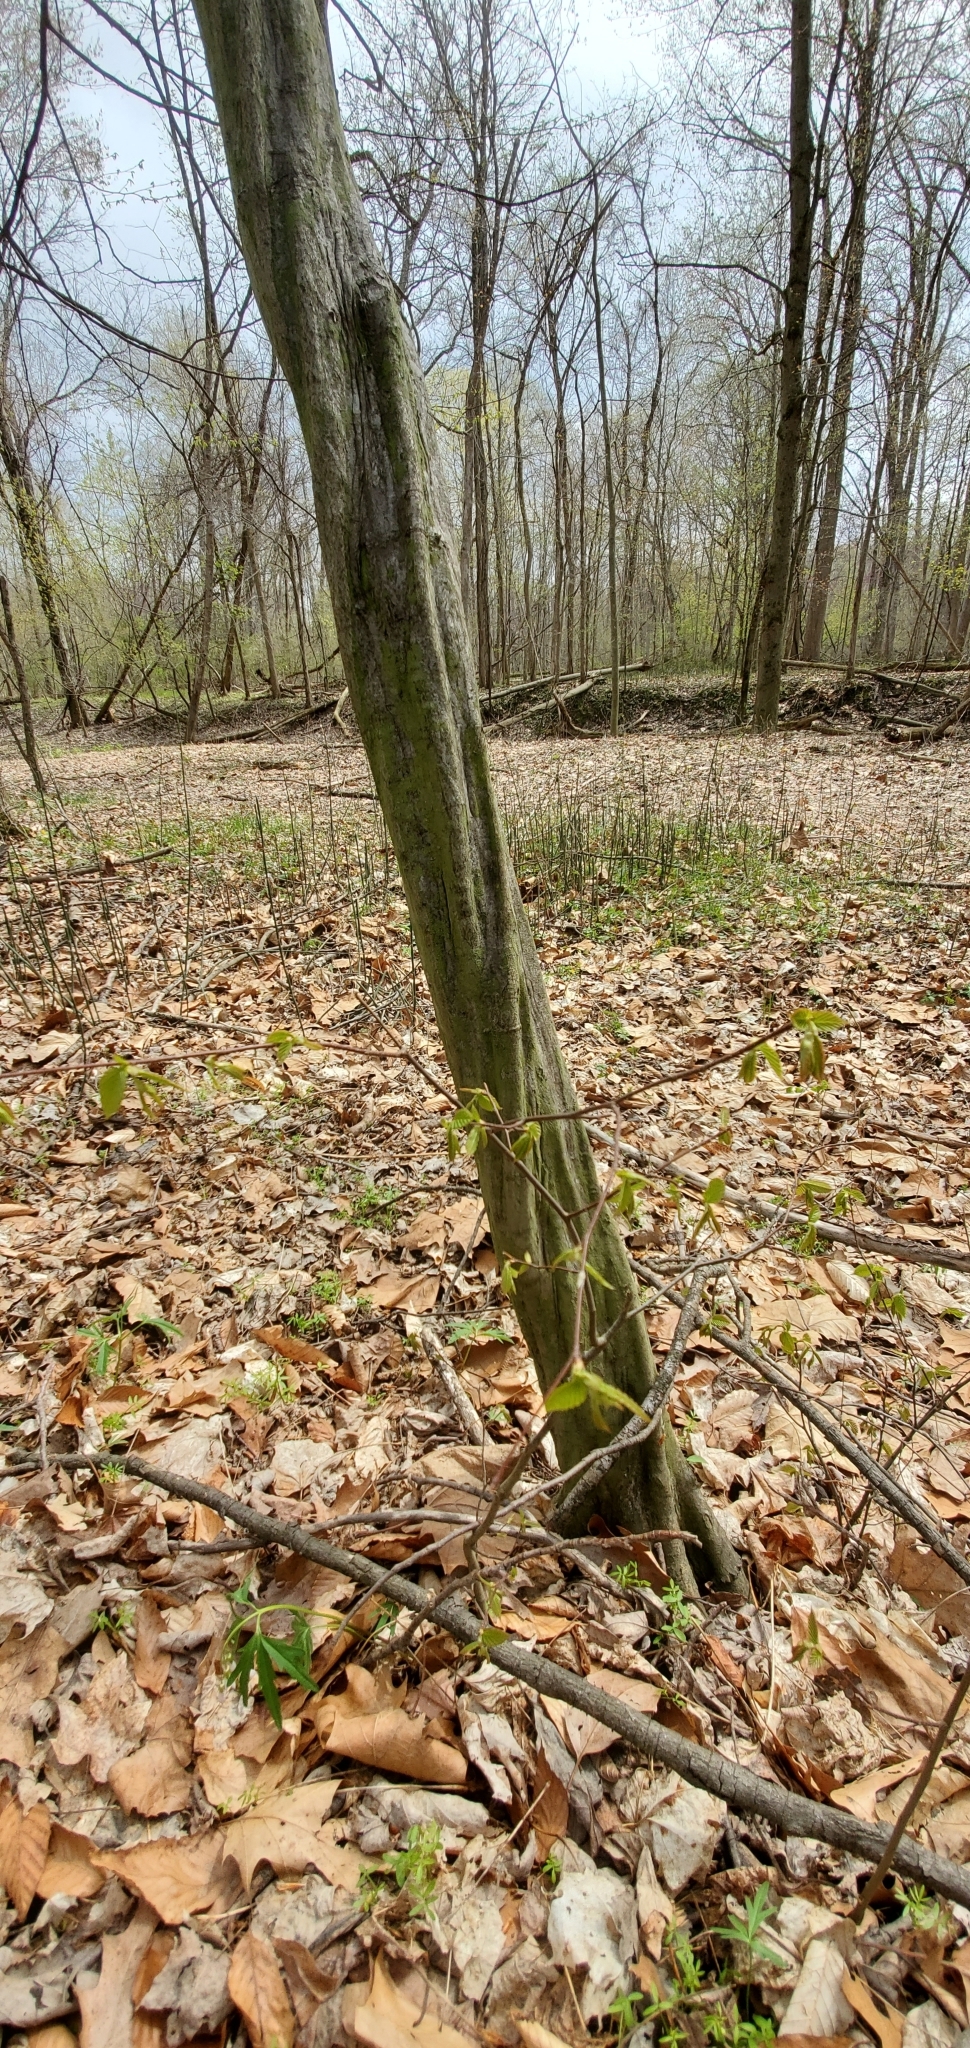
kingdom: Plantae
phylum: Tracheophyta
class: Magnoliopsida
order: Fagales
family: Betulaceae
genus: Carpinus
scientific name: Carpinus caroliniana
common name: American hornbeam
